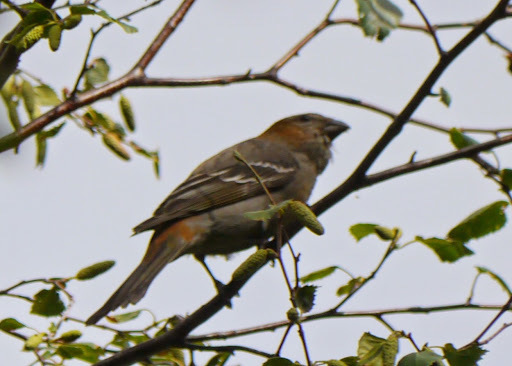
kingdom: Animalia
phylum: Chordata
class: Aves
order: Passeriformes
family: Fringillidae
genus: Pinicola
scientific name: Pinicola enucleator
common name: Pine grosbeak
